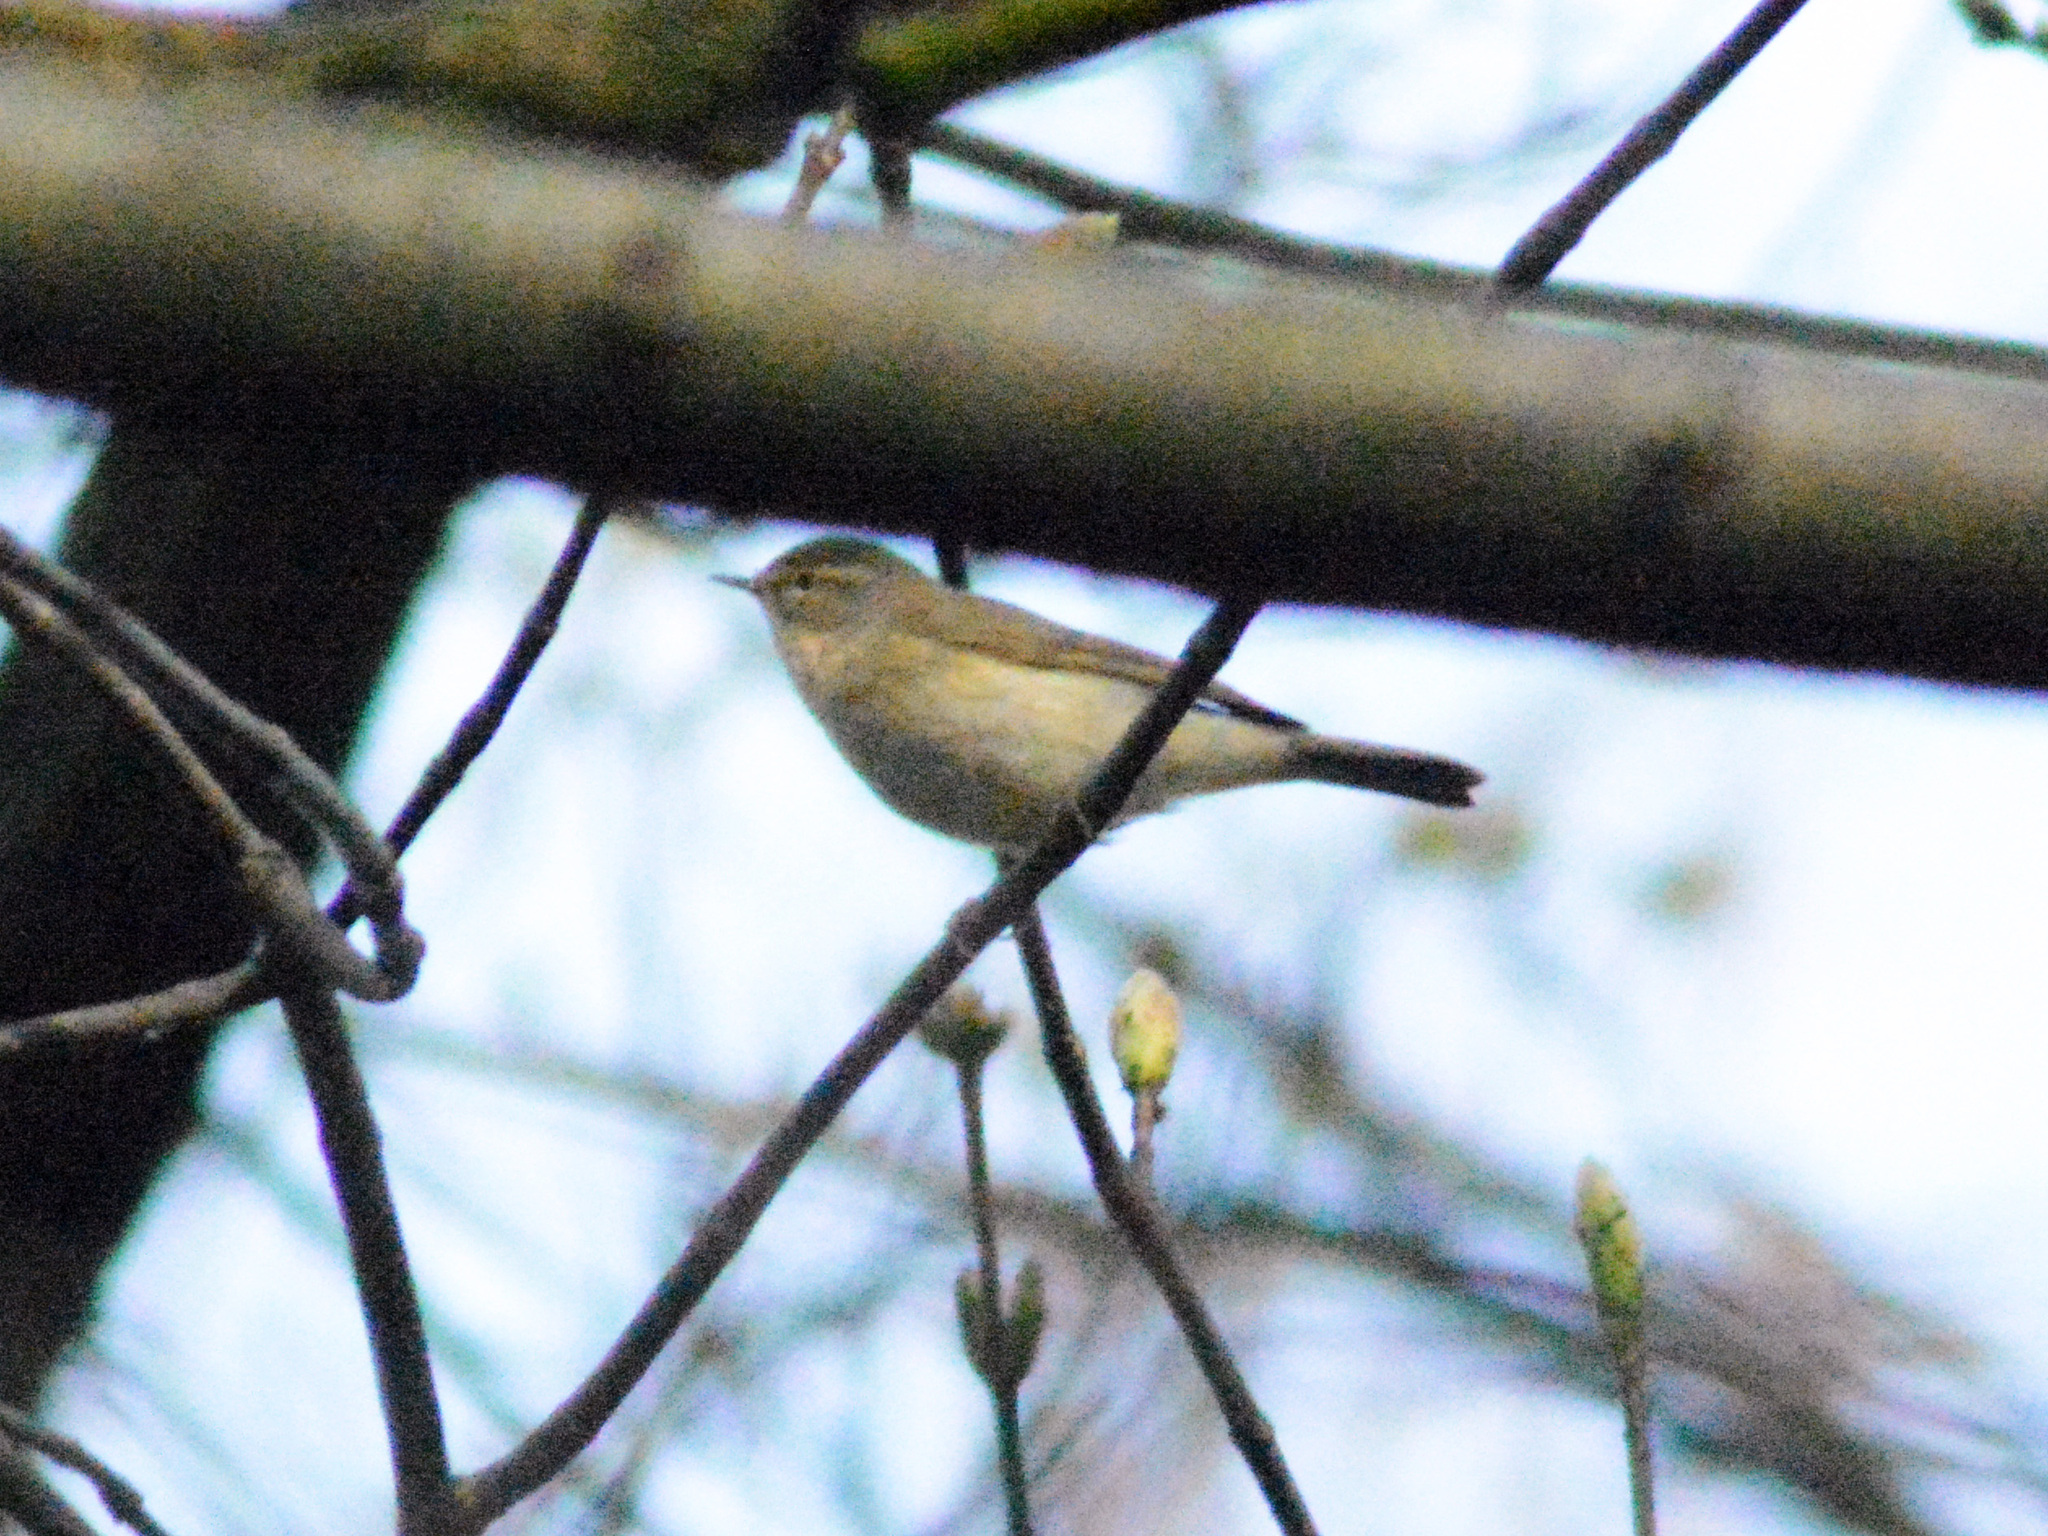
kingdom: Animalia
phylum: Chordata
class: Aves
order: Passeriformes
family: Phylloscopidae
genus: Phylloscopus
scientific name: Phylloscopus collybita
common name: Common chiffchaff
